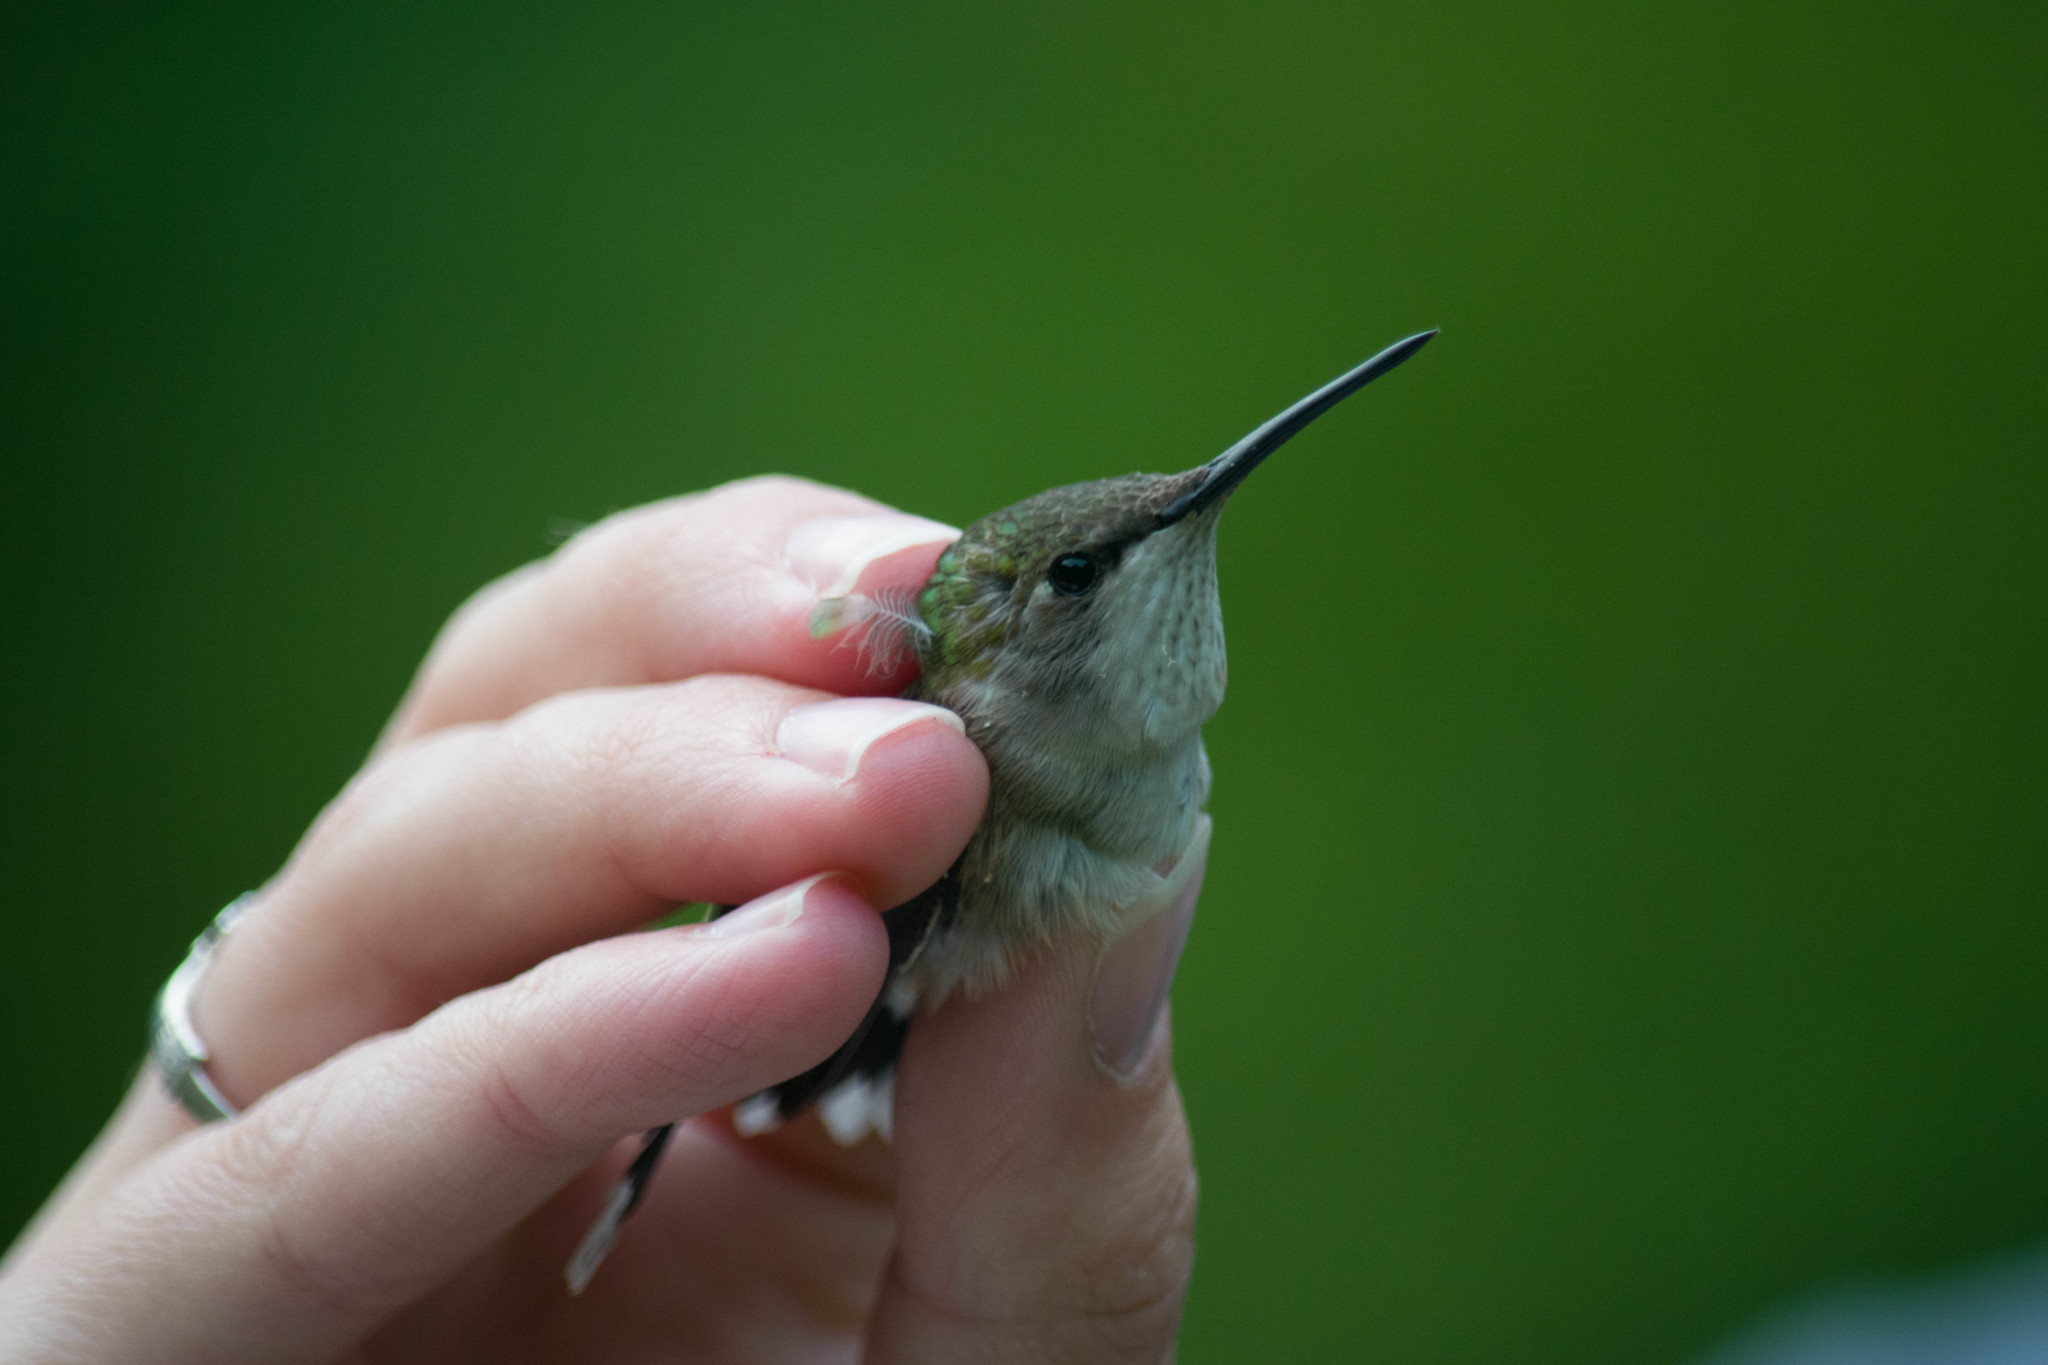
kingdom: Animalia
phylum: Chordata
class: Aves
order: Apodiformes
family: Trochilidae
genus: Archilochus
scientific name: Archilochus colubris
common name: Ruby-throated hummingbird
